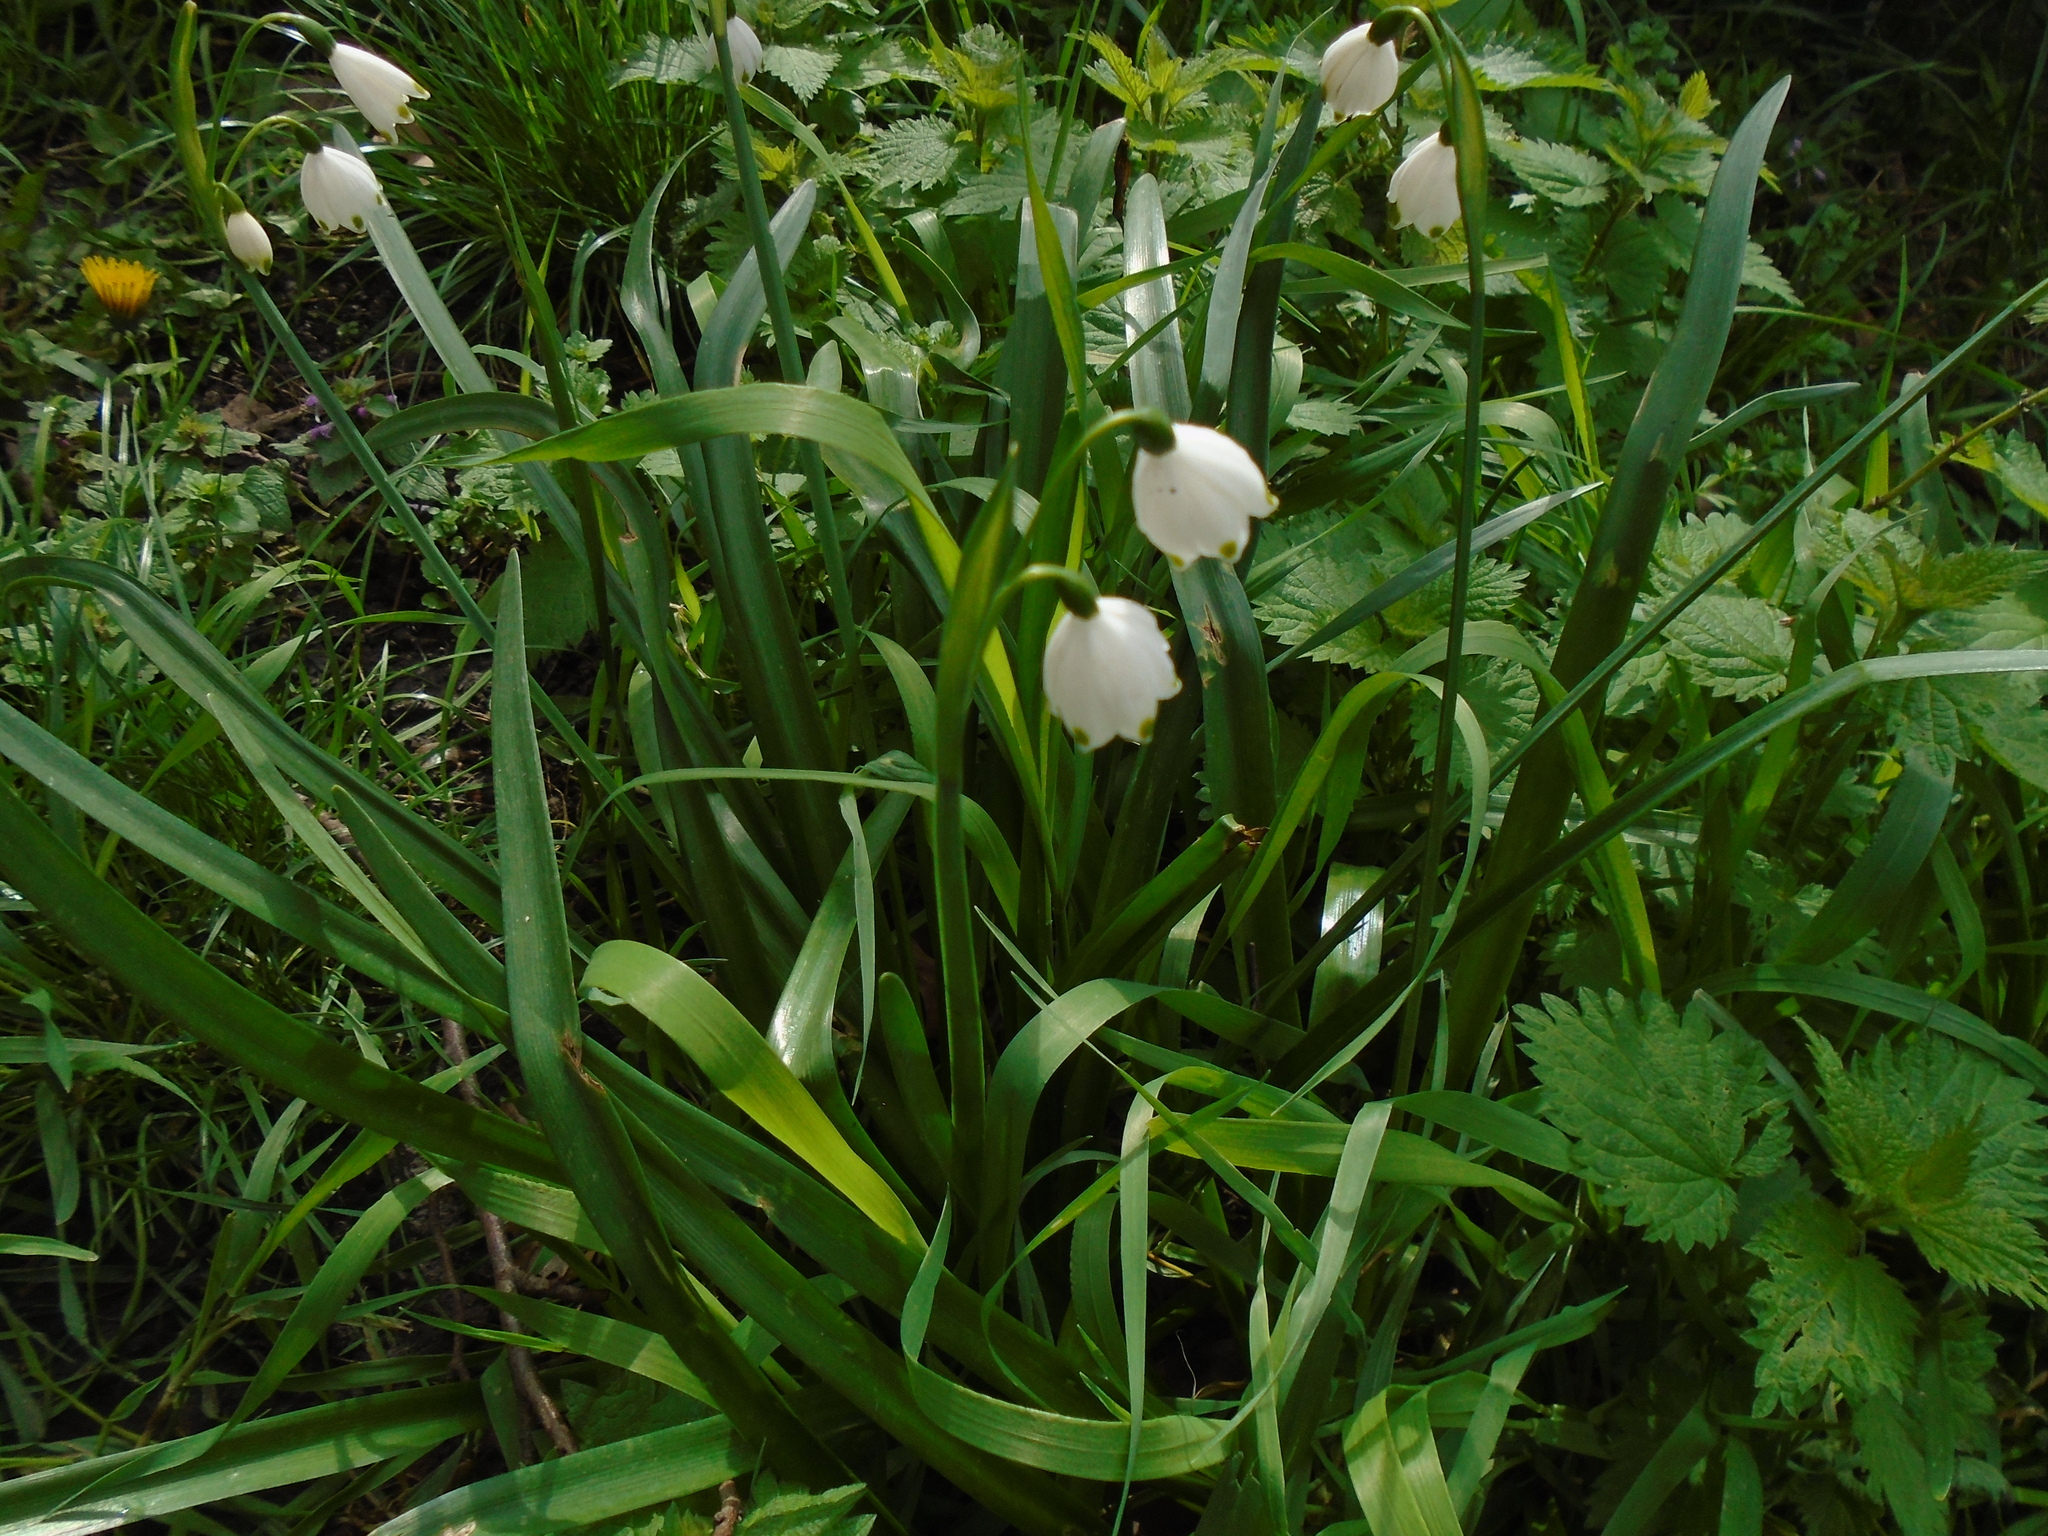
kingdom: Plantae
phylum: Tracheophyta
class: Liliopsida
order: Asparagales
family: Amaryllidaceae
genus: Leucojum
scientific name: Leucojum aestivum
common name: Summer snowflake
